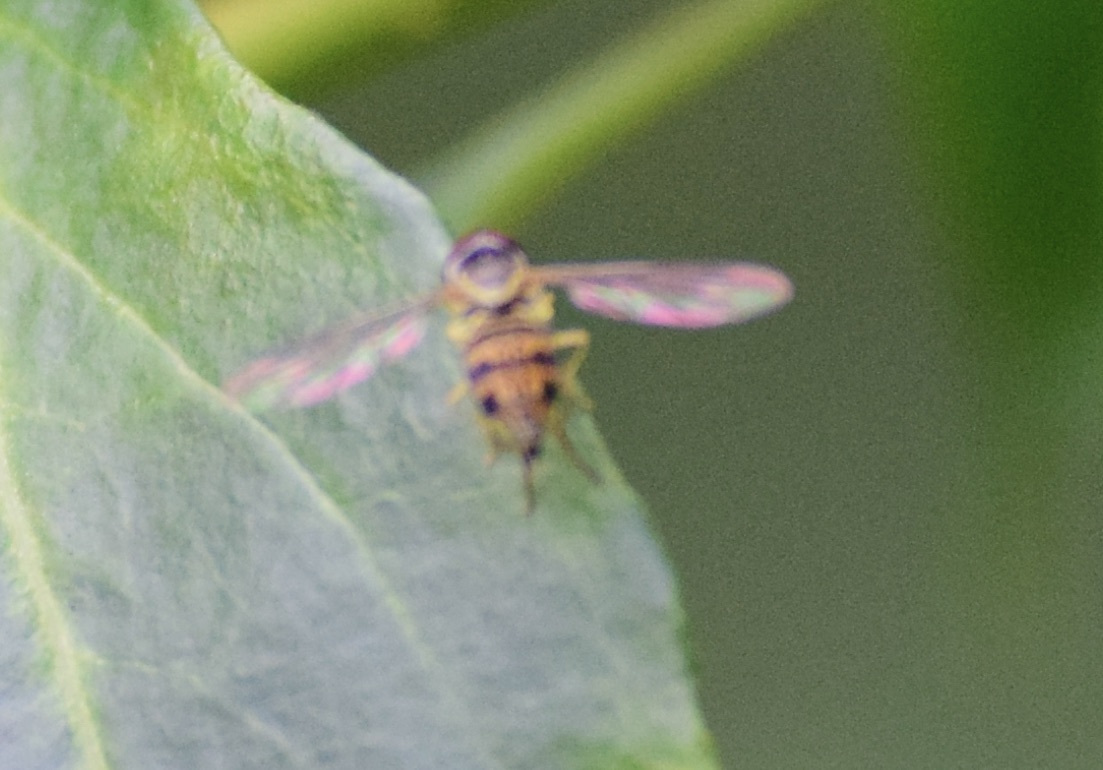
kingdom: Animalia
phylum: Arthropoda
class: Insecta
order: Diptera
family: Syrphidae
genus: Toxomerus
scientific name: Toxomerus geminatus
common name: Eastern calligrapher
